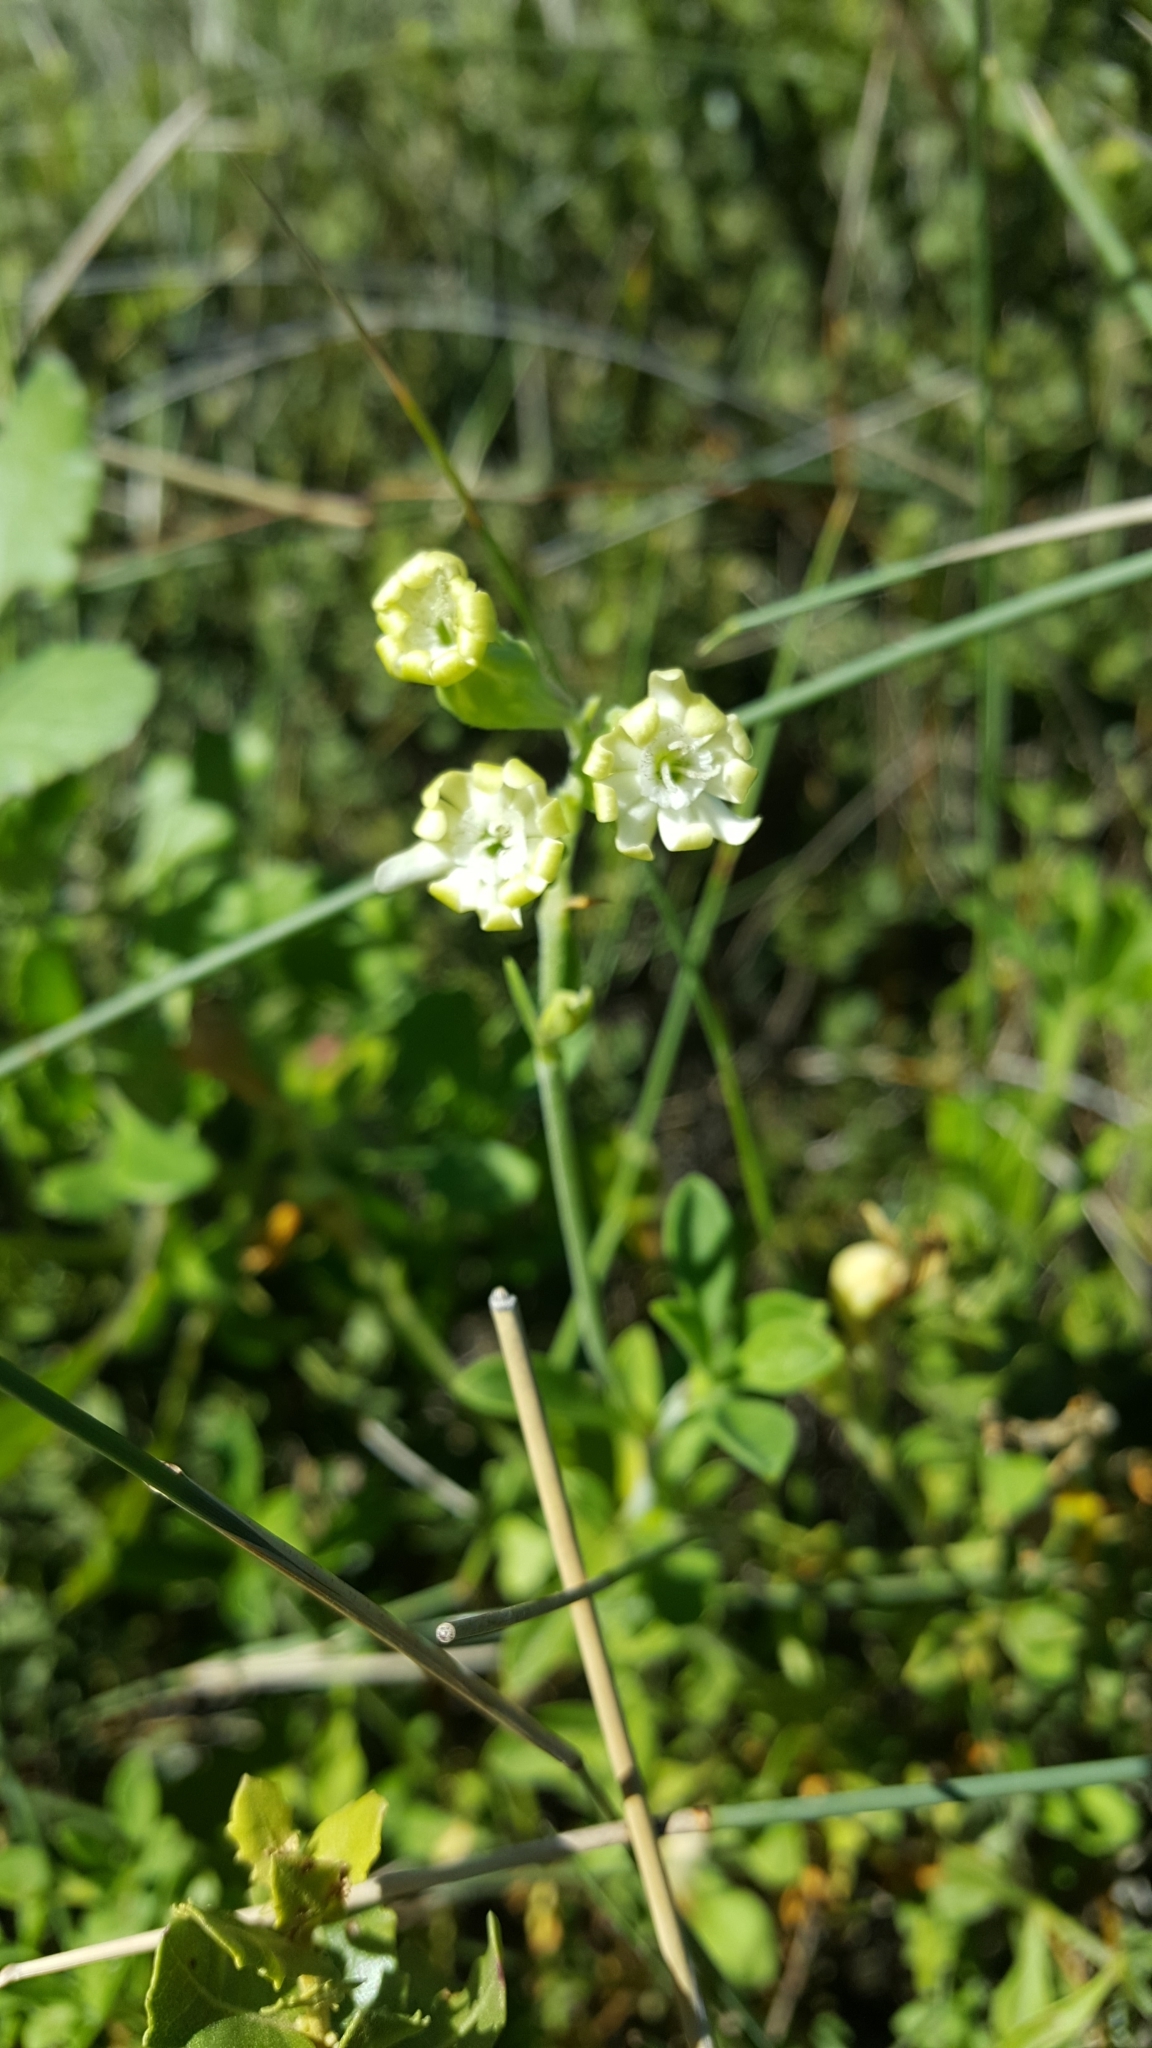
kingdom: Plantae
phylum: Tracheophyta
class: Magnoliopsida
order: Caryophyllales
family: Caryophyllaceae
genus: Silene
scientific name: Silene crassifolia
